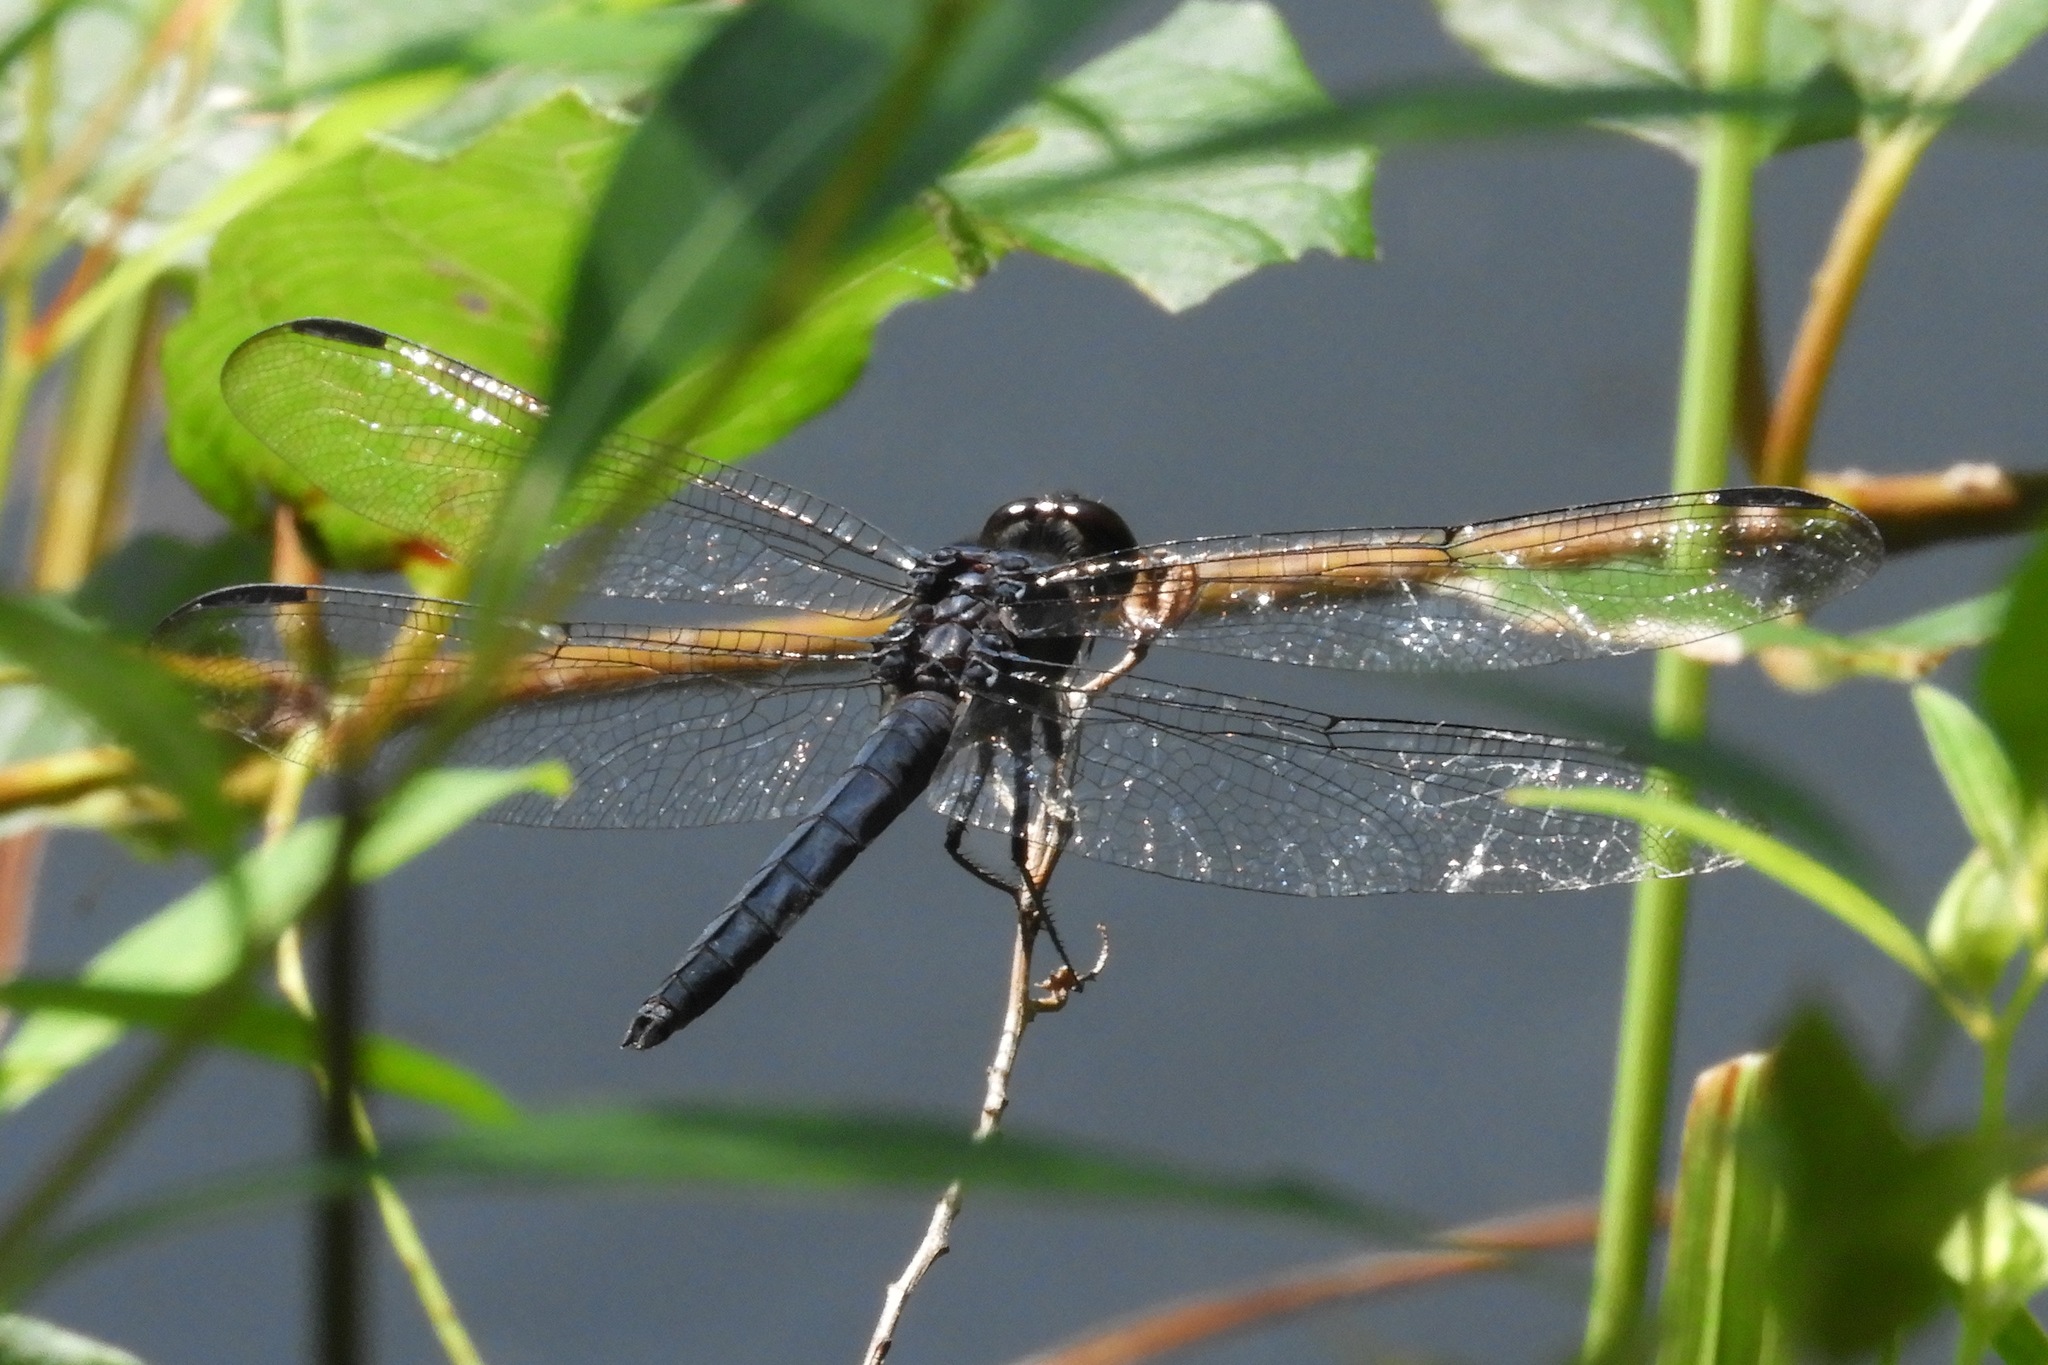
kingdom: Animalia
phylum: Arthropoda
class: Insecta
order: Odonata
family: Libellulidae
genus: Libellula
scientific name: Libellula incesta
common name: Slaty skimmer
